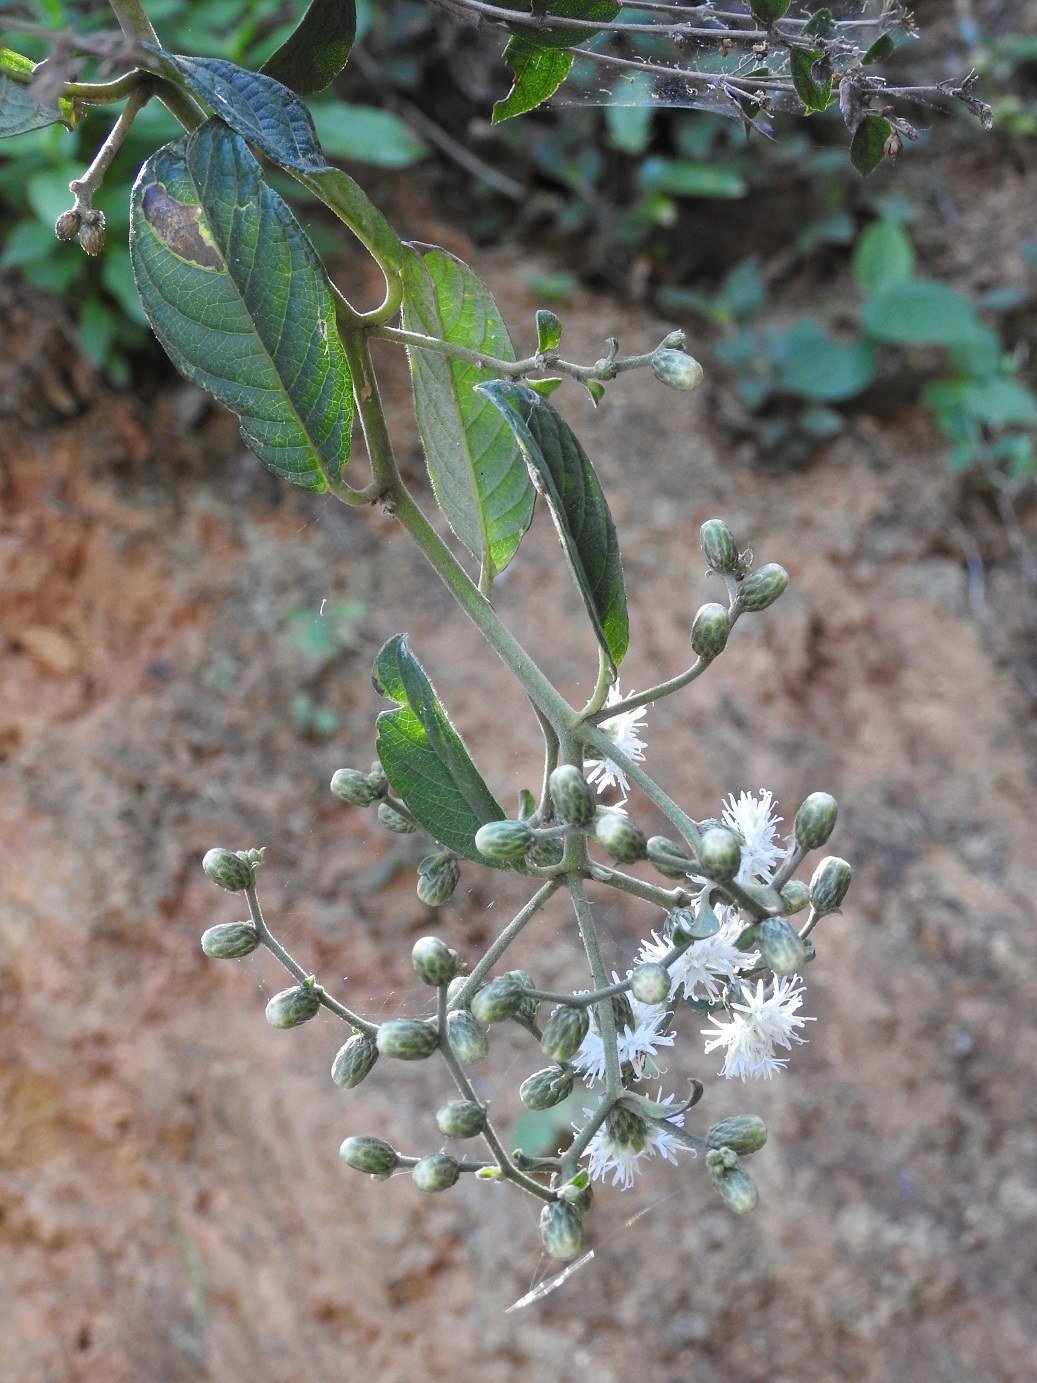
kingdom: Plantae
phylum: Tracheophyta
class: Magnoliopsida
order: Asterales
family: Asteraceae
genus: Lepidaploa
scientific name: Lepidaploa canescens
